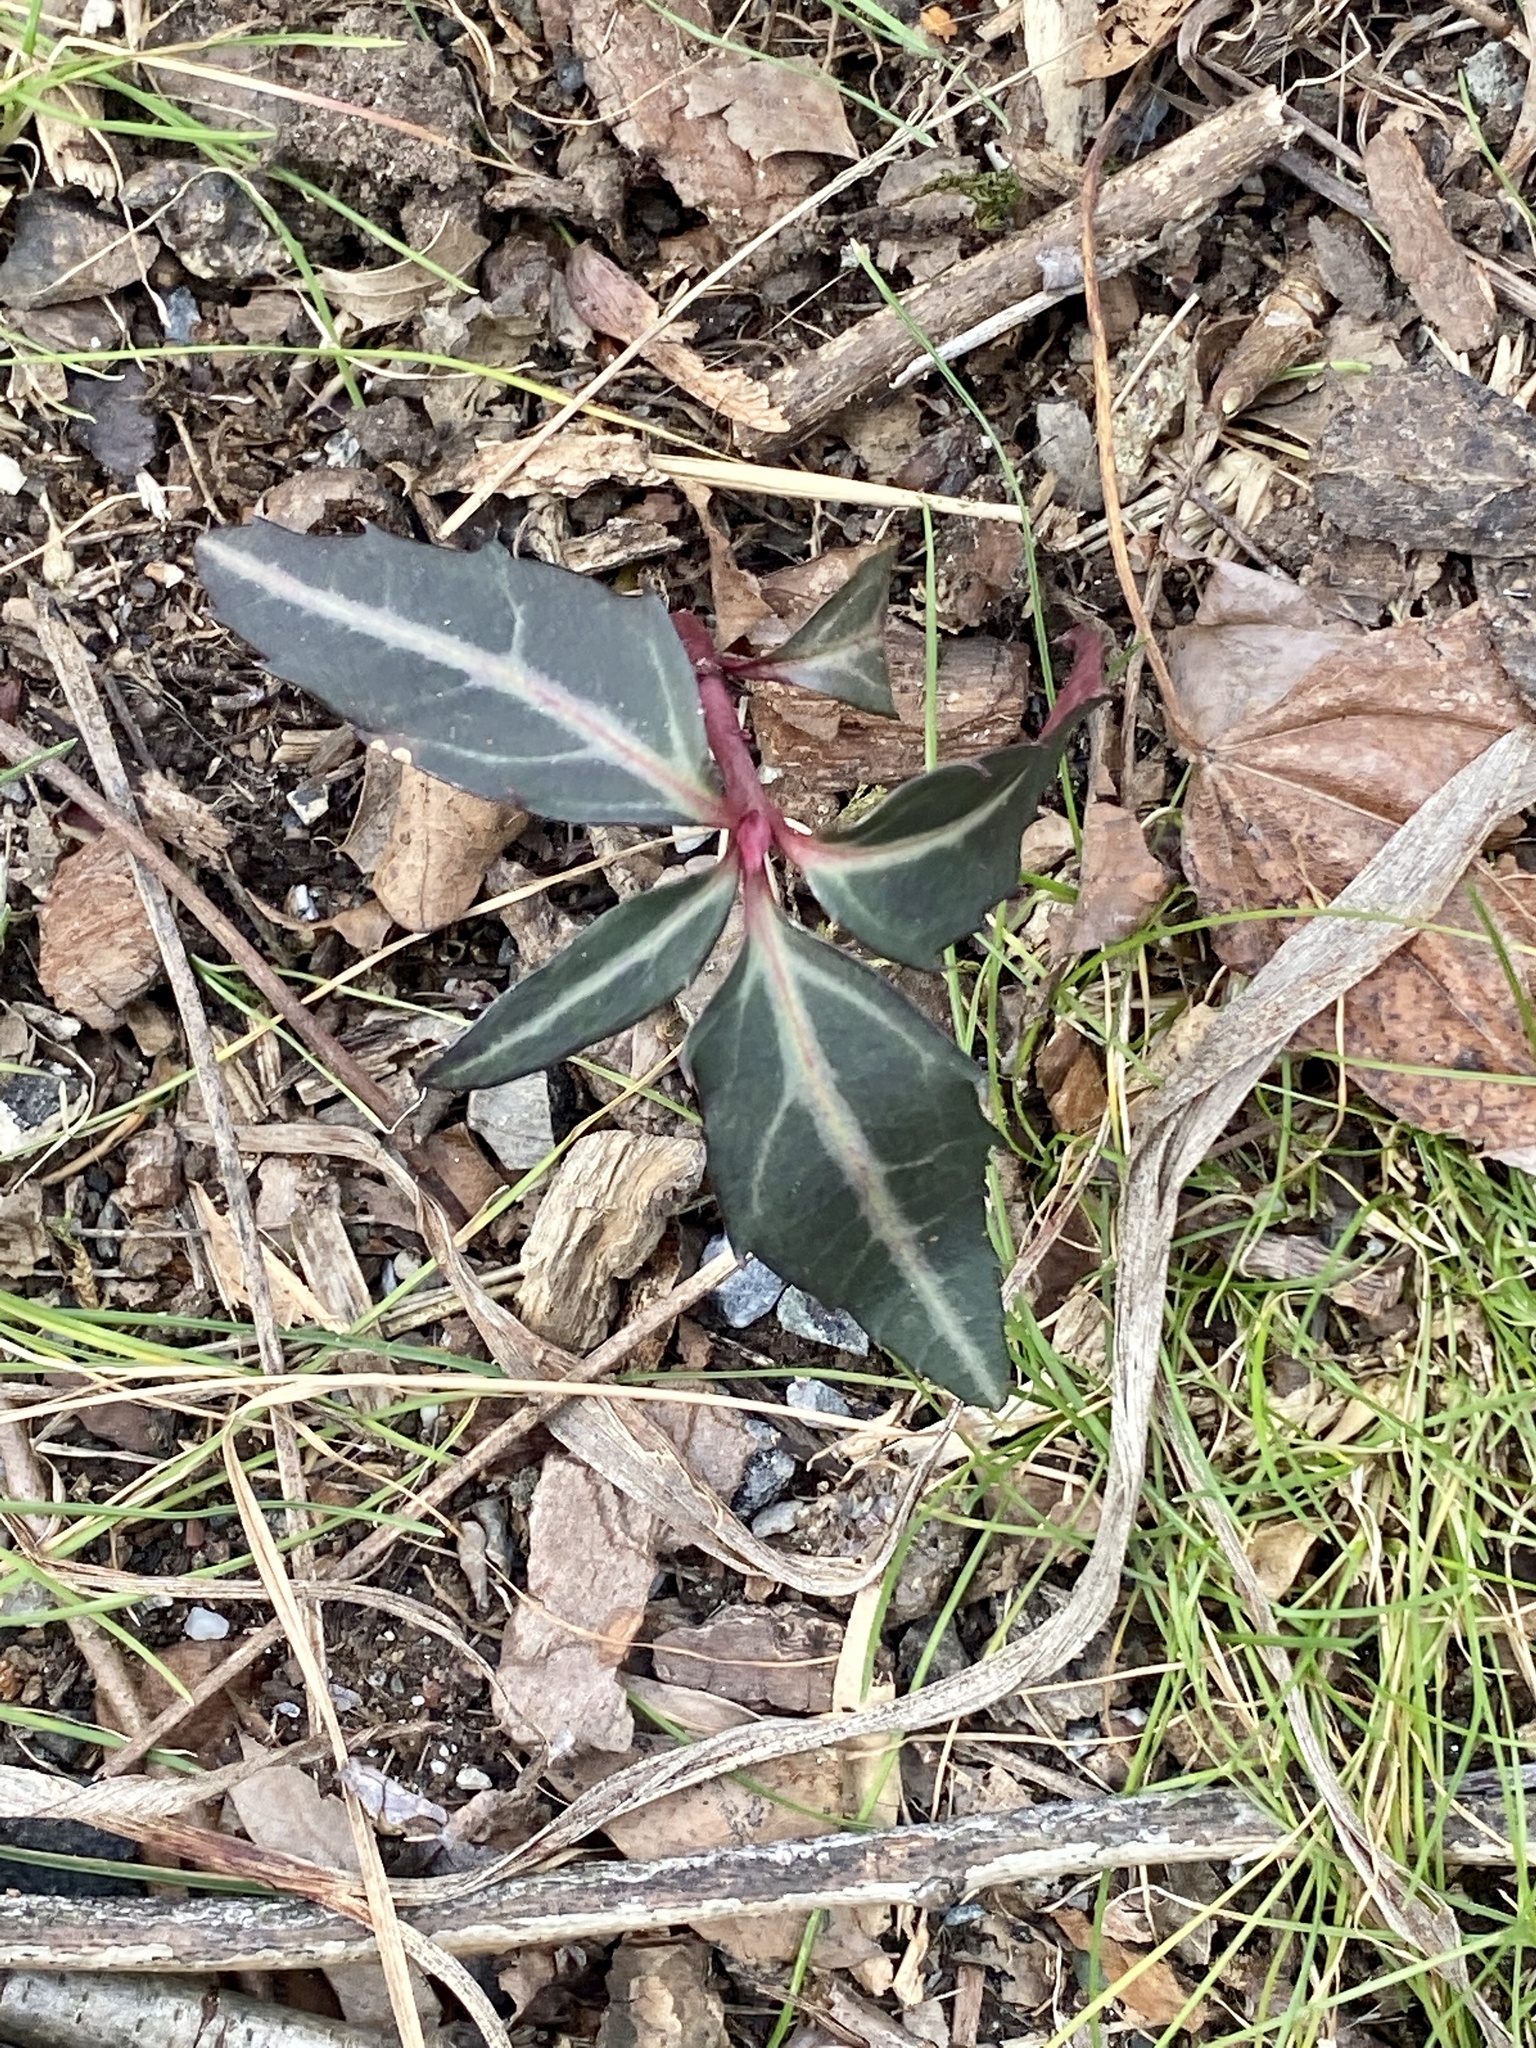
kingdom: Plantae
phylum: Tracheophyta
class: Magnoliopsida
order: Ericales
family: Ericaceae
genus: Chimaphila
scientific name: Chimaphila maculata
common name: Spotted pipsissewa
